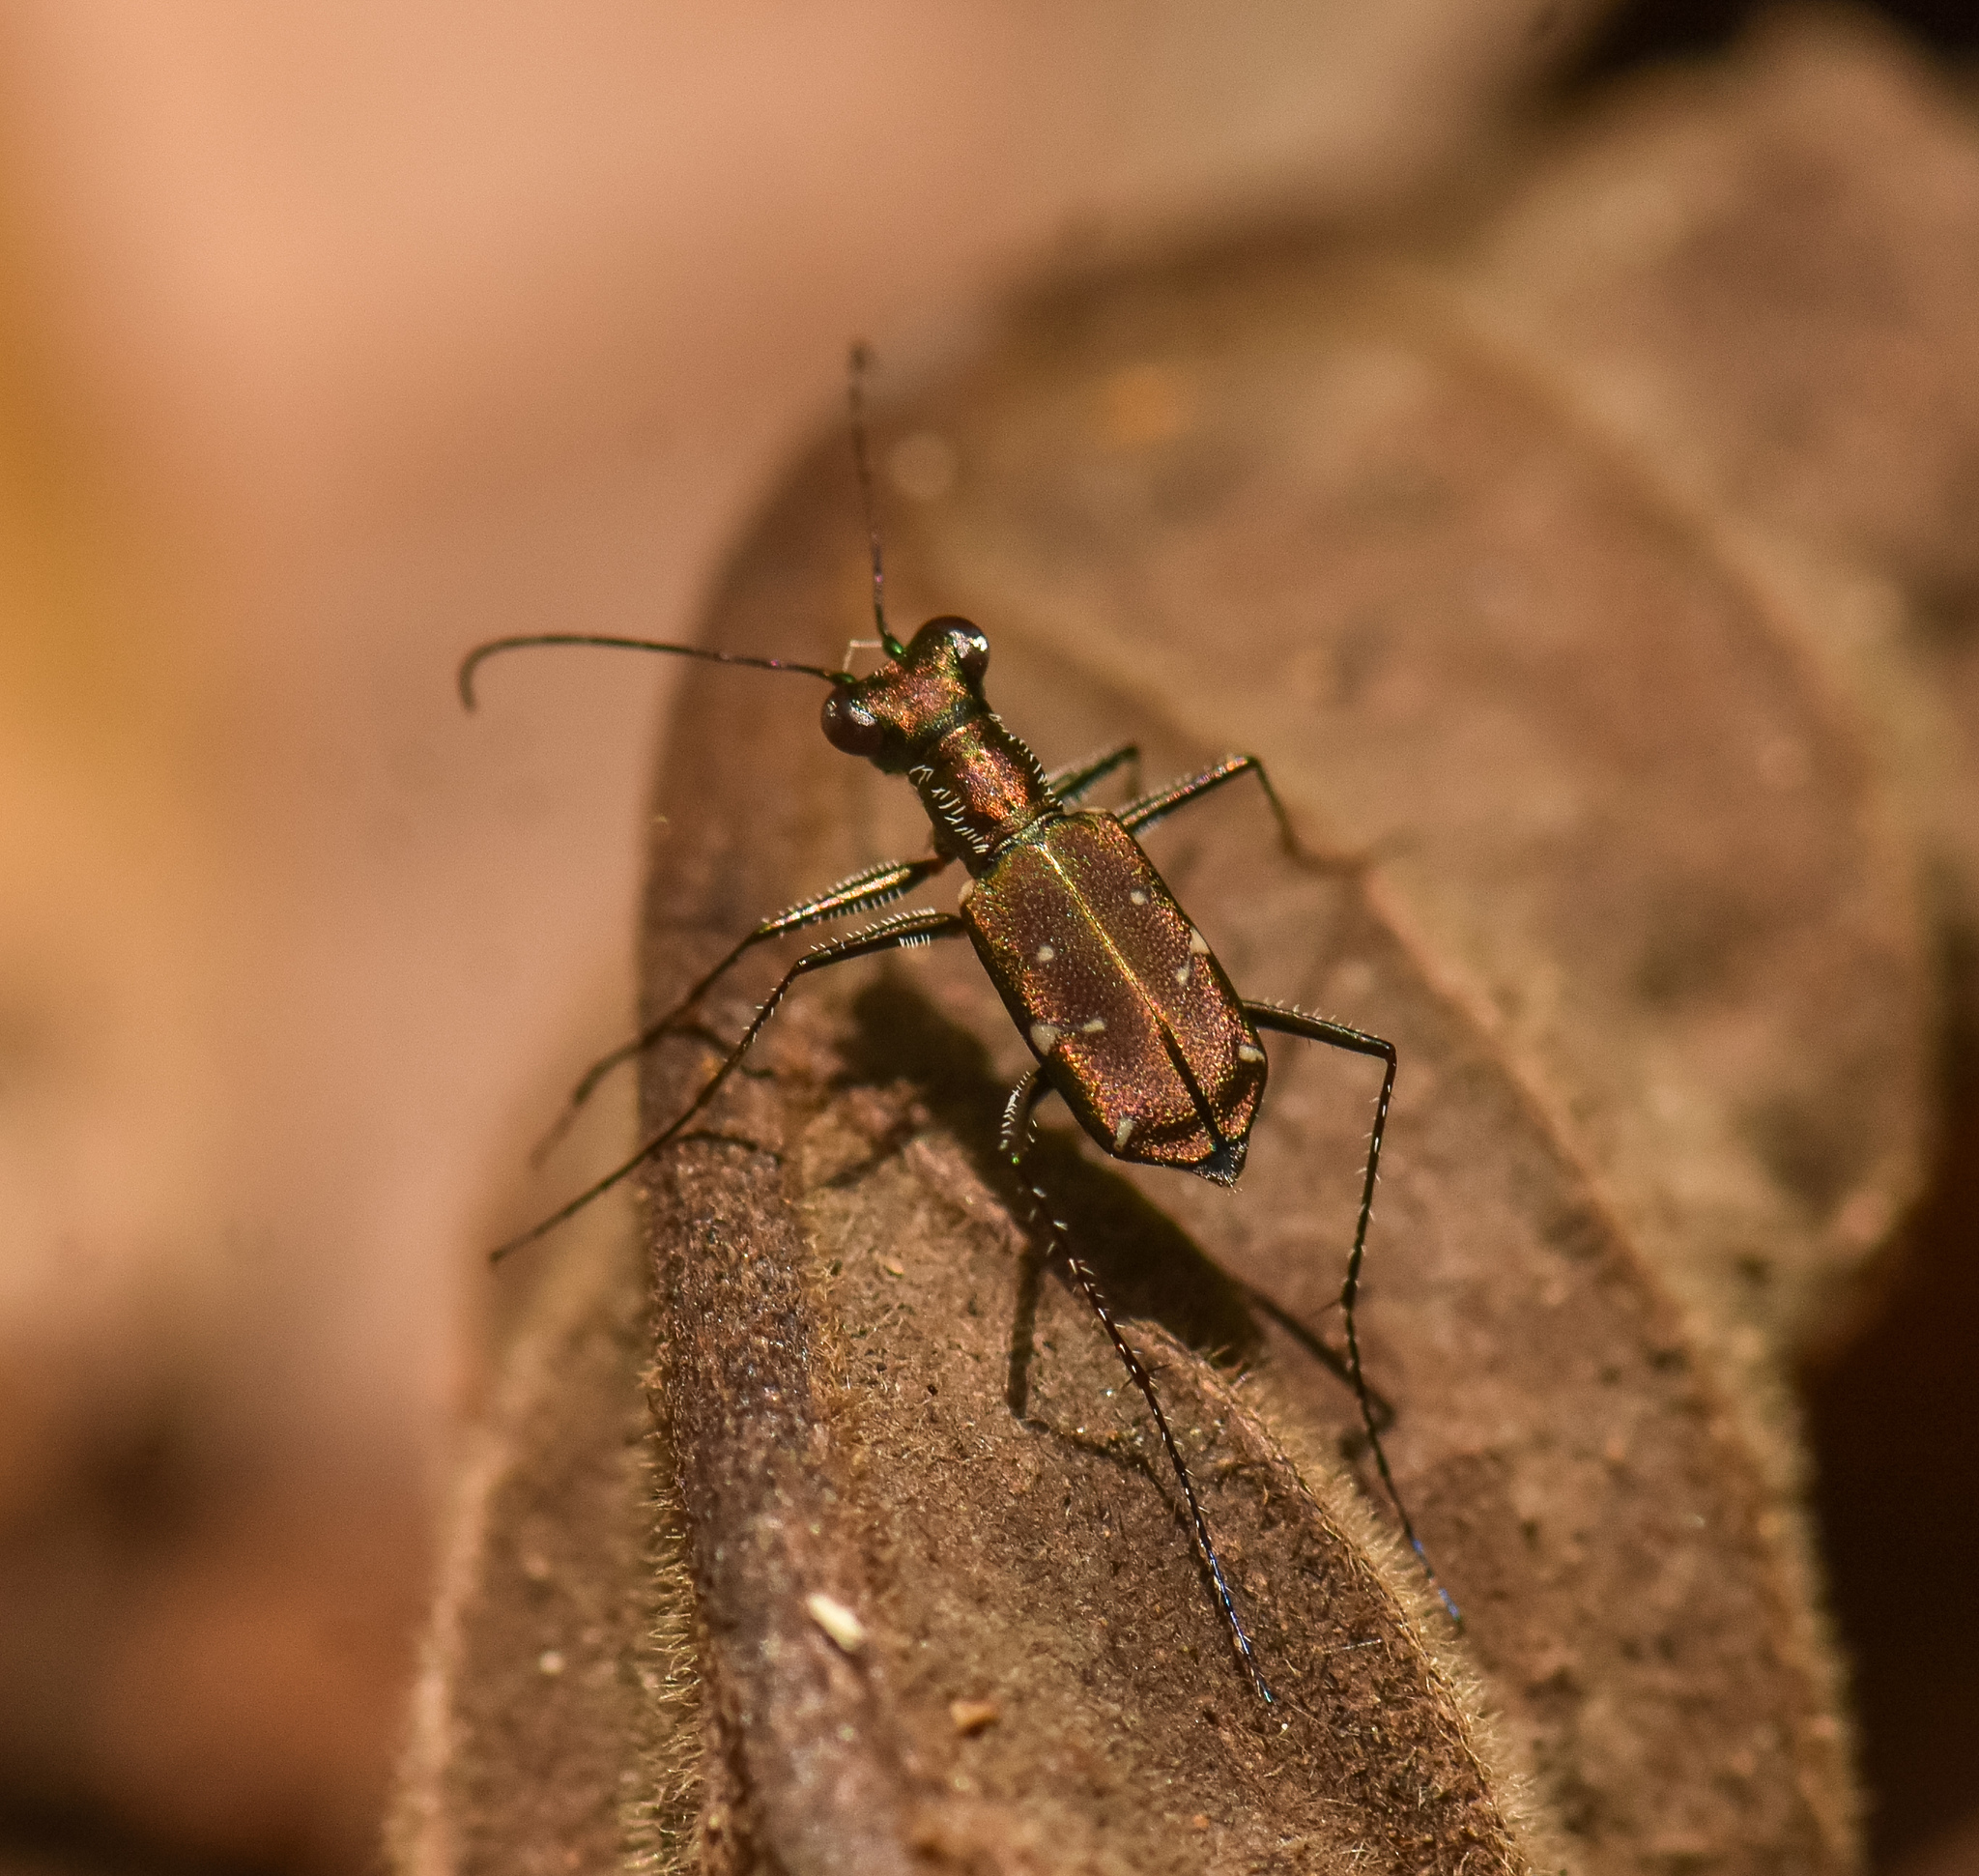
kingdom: Animalia
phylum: Arthropoda
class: Insecta
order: Coleoptera
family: Carabidae
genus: Cylindera
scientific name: Cylindera paucipilina
